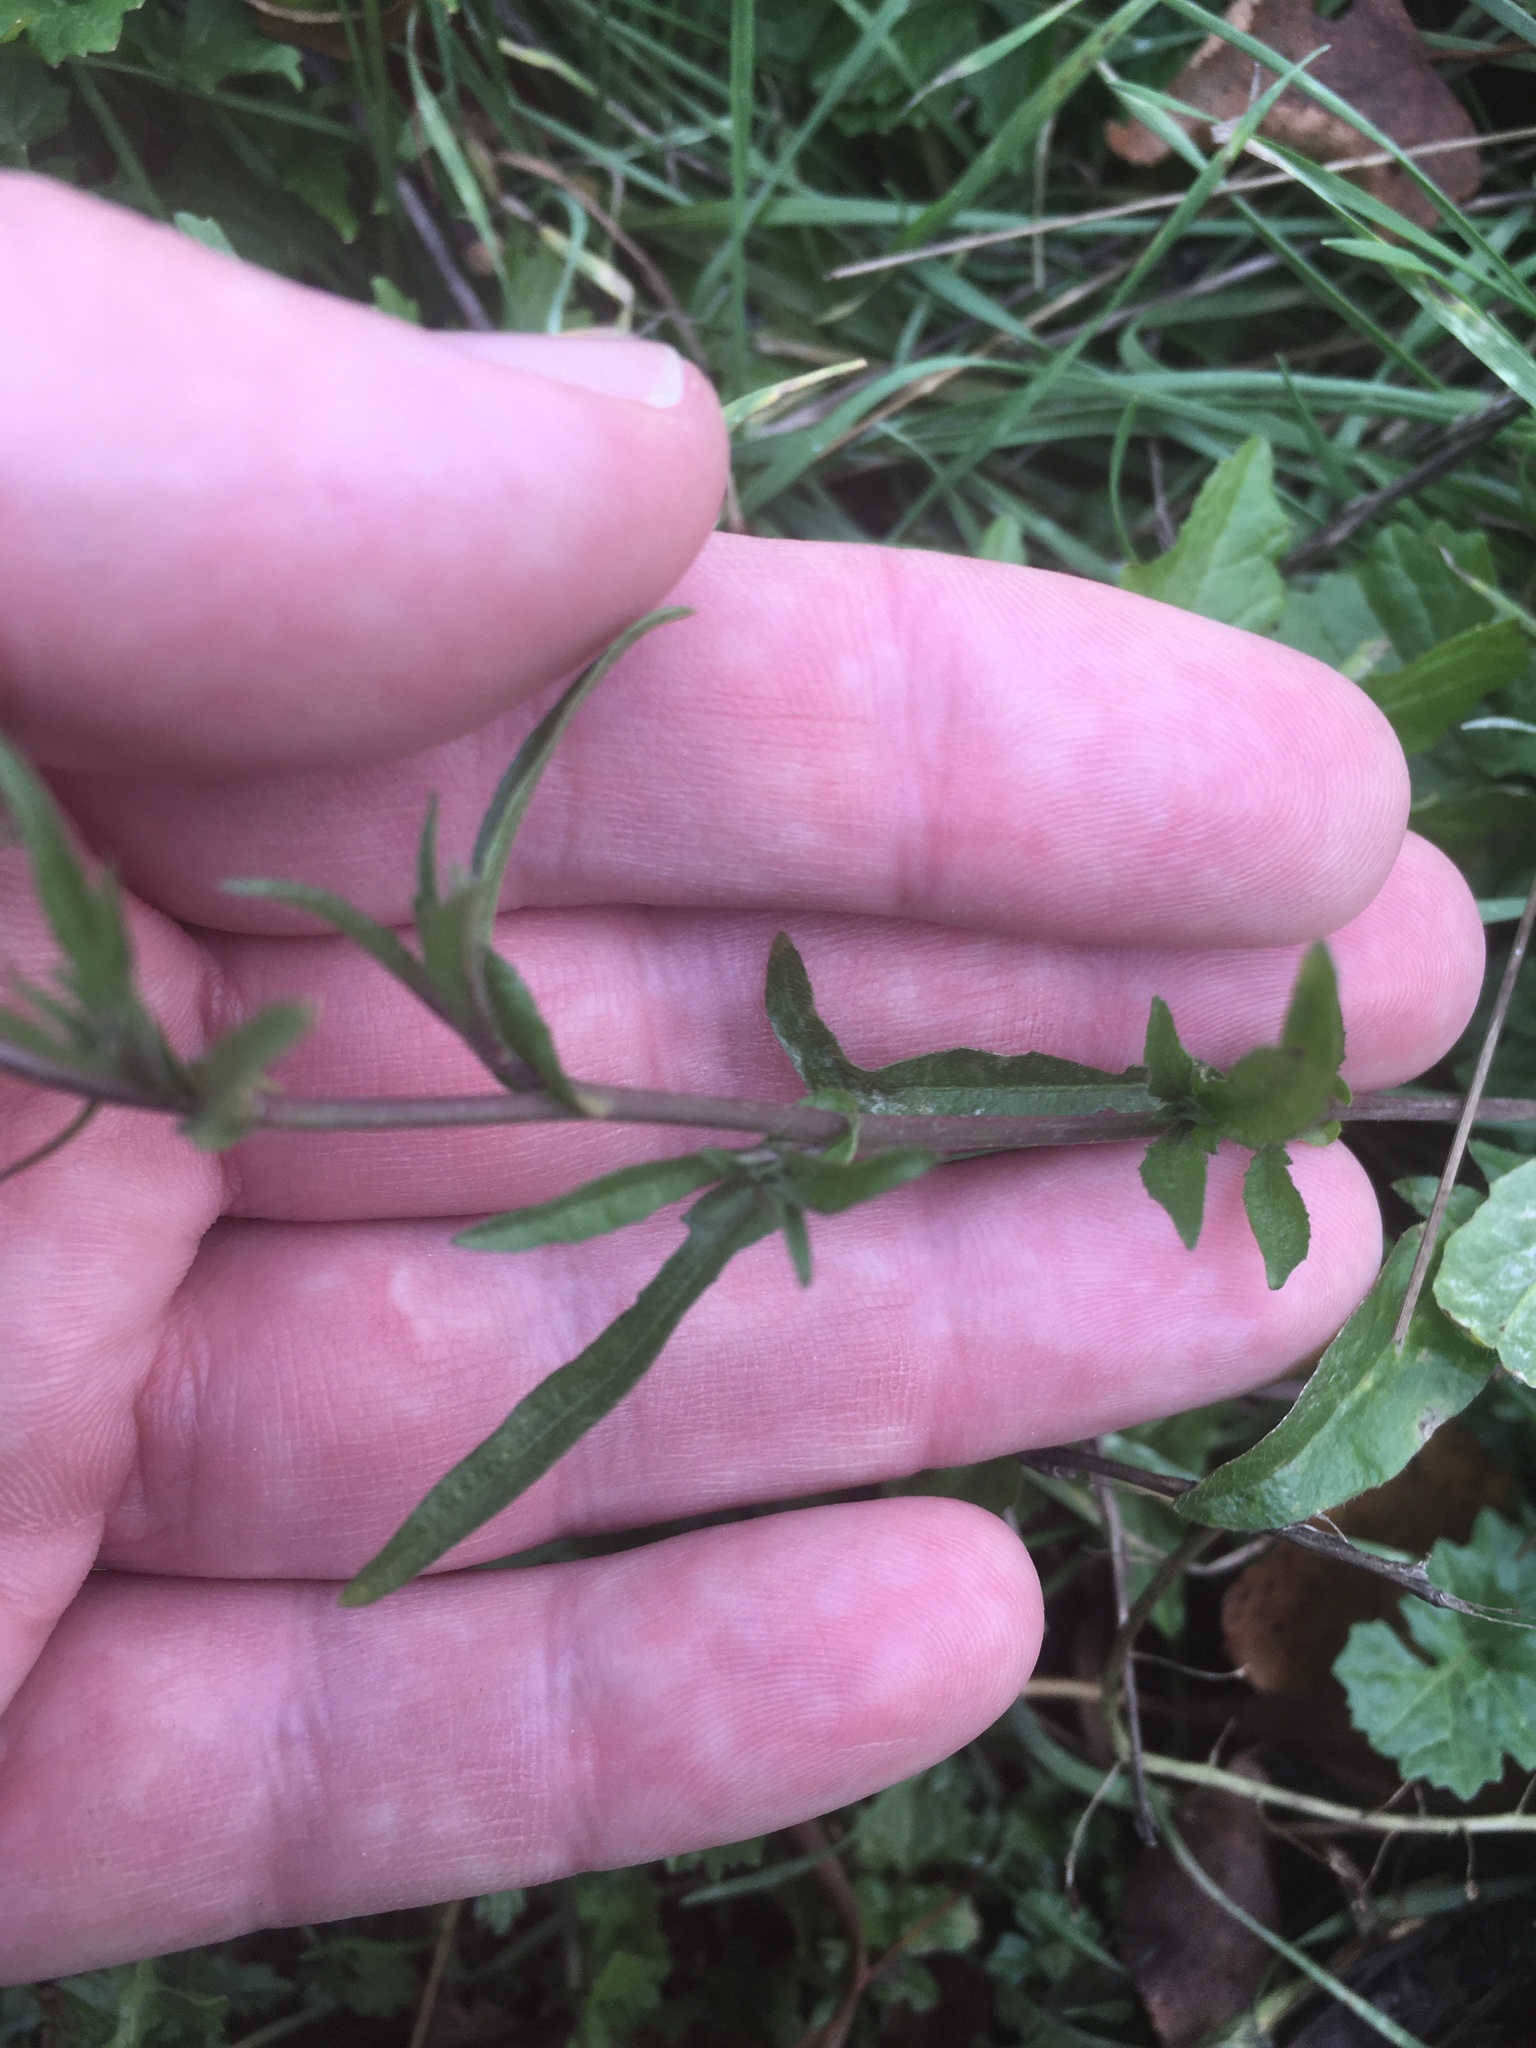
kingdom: Plantae
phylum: Tracheophyta
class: Magnoliopsida
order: Brassicales
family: Brassicaceae
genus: Capsella
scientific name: Capsella bursa-pastoris
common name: Shepherd's purse
